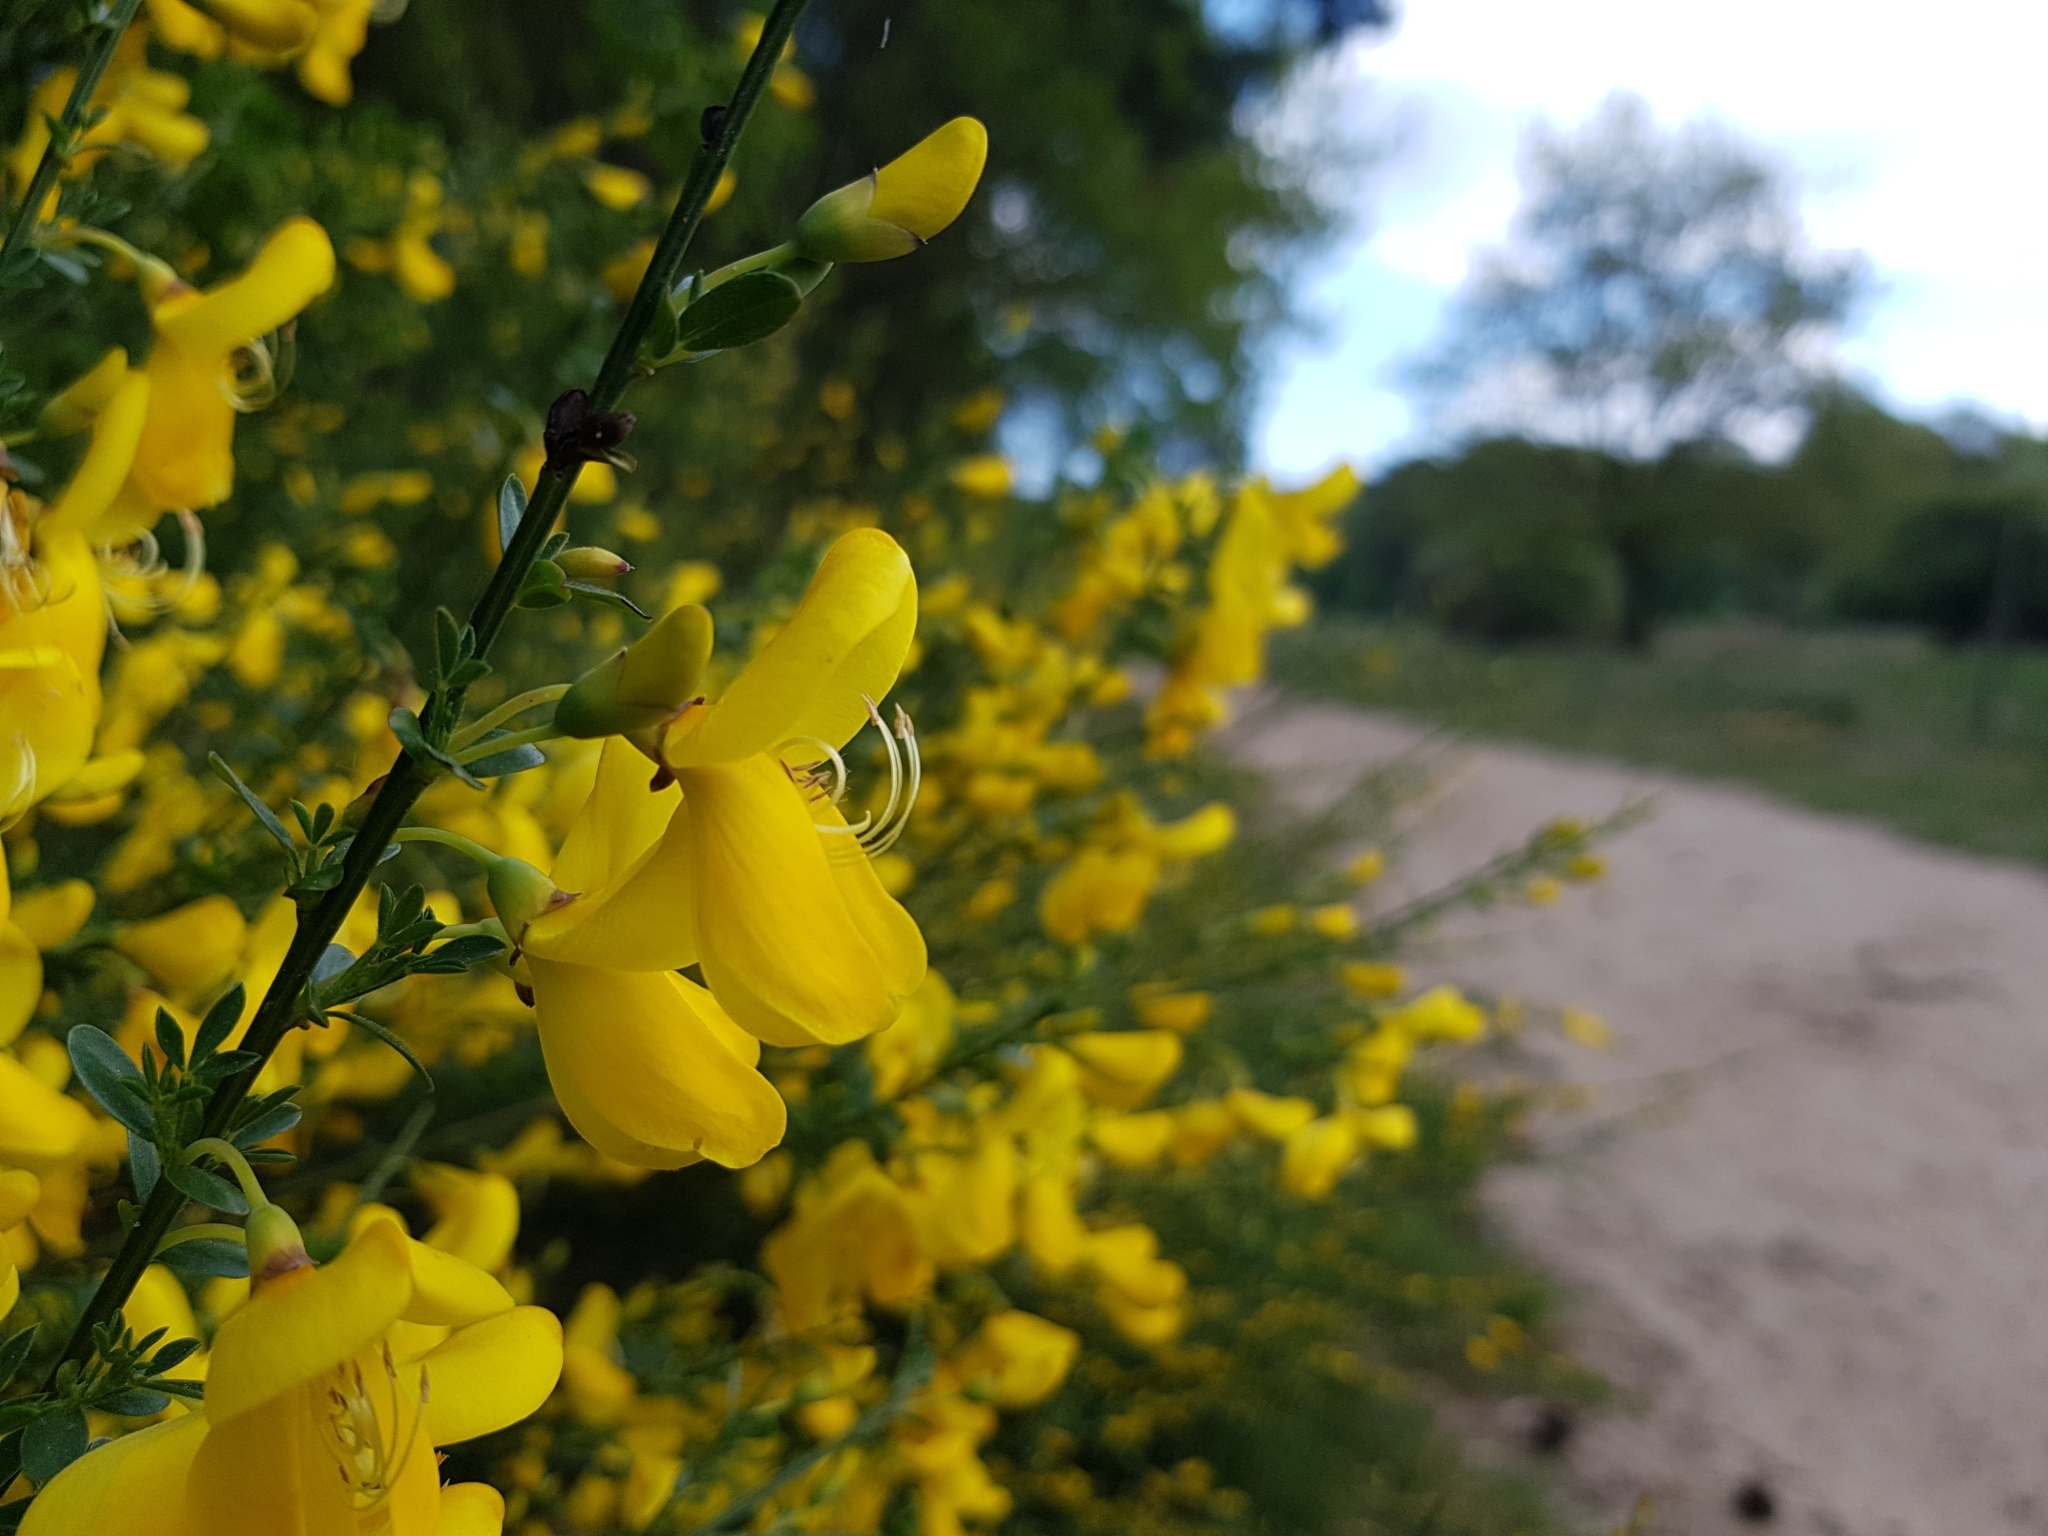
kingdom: Plantae
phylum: Tracheophyta
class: Magnoliopsida
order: Fabales
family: Fabaceae
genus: Cytisus
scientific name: Cytisus scoparius
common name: Scotch broom
